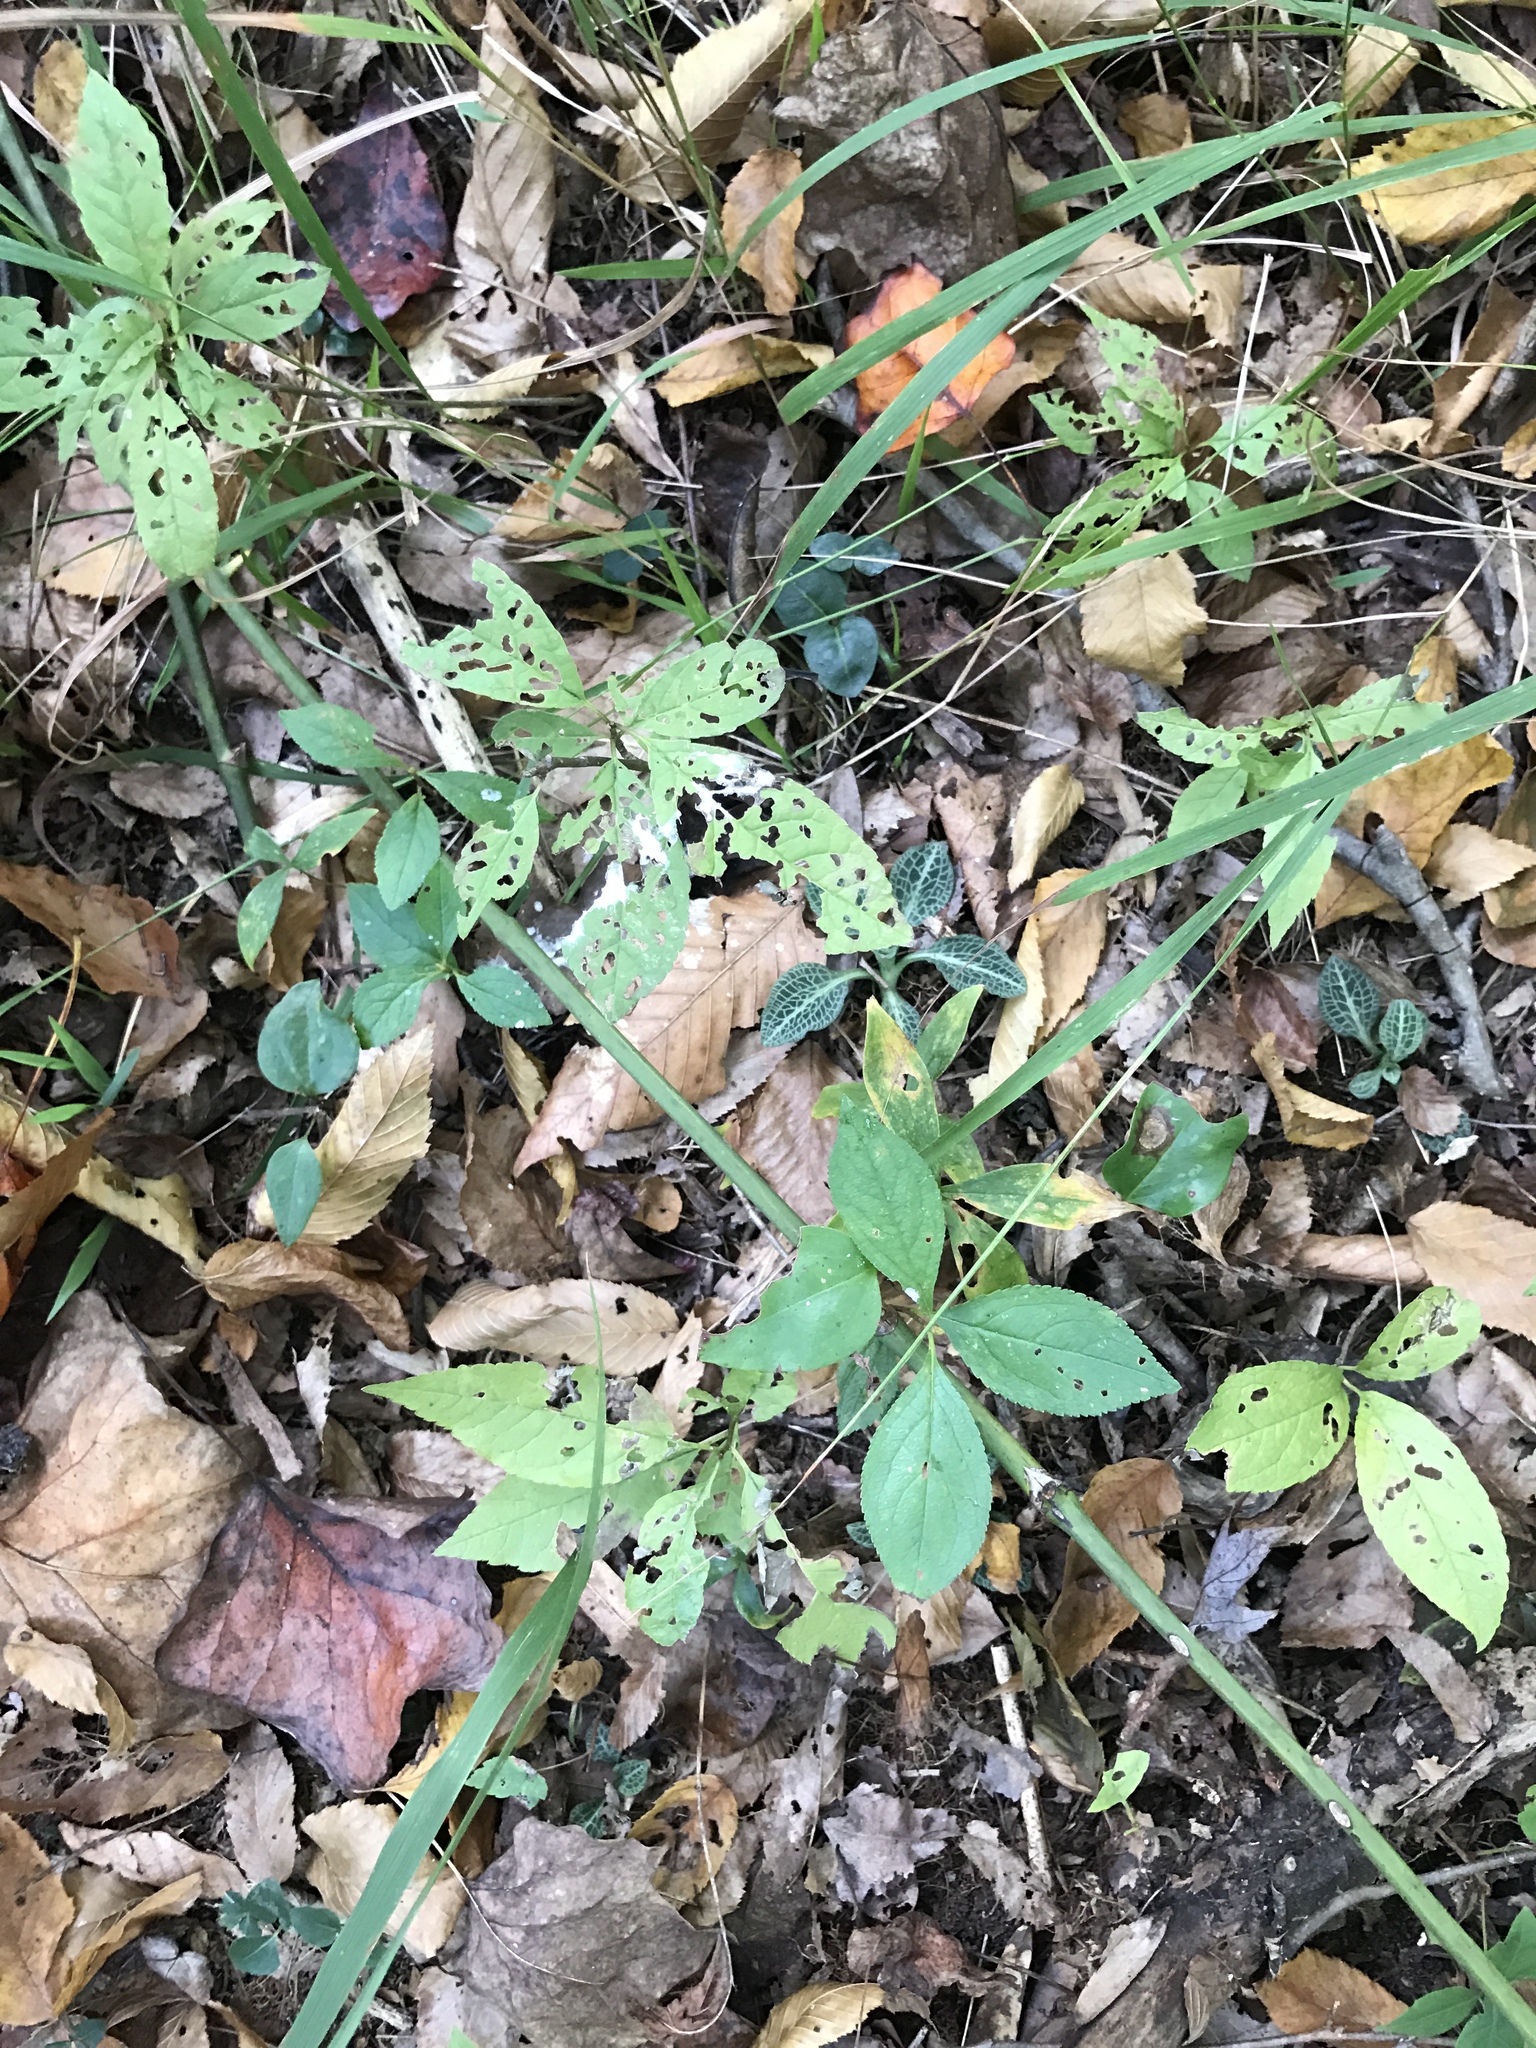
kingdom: Plantae
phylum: Tracheophyta
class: Liliopsida
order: Asparagales
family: Orchidaceae
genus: Goodyera
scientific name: Goodyera pubescens
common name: Downy rattlesnake-plantain
